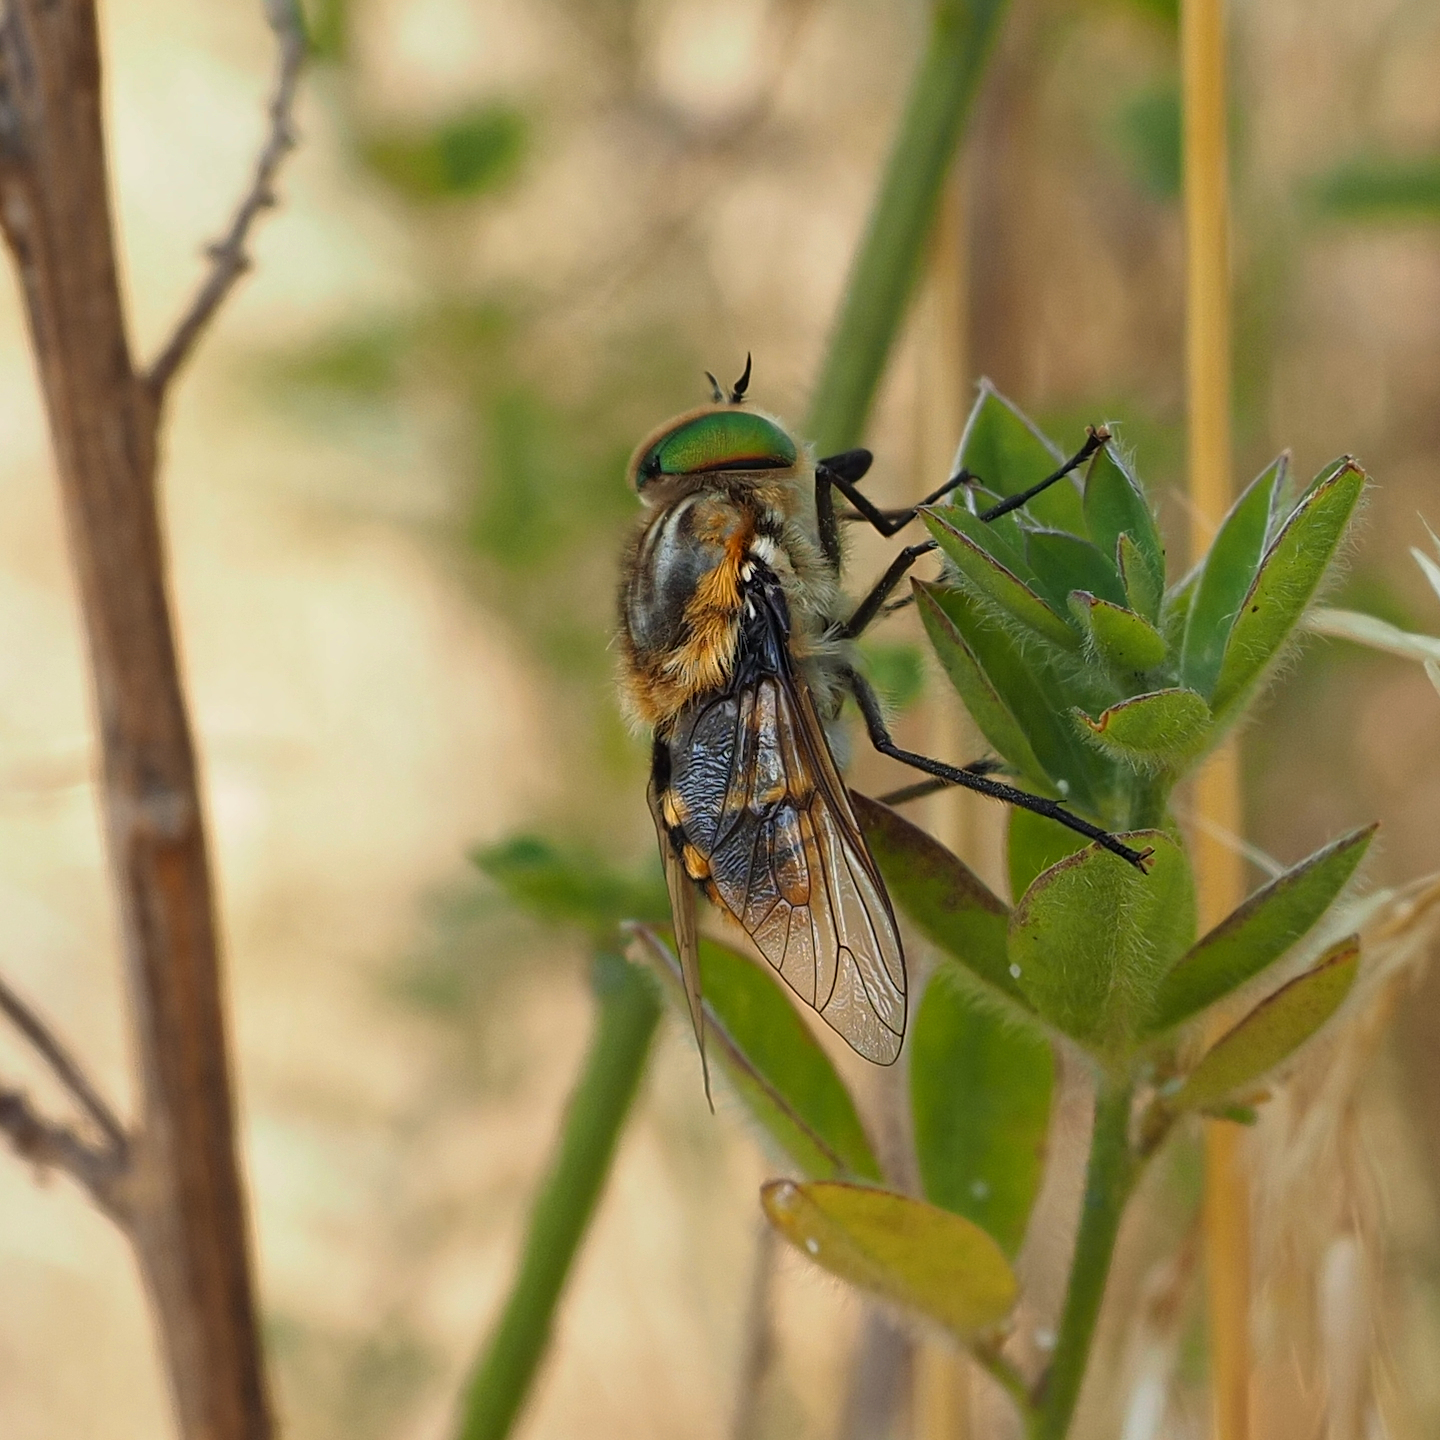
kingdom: Animalia
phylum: Arthropoda
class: Insecta
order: Diptera
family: Tabanidae
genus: Scaptia
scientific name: Scaptia auriflua
